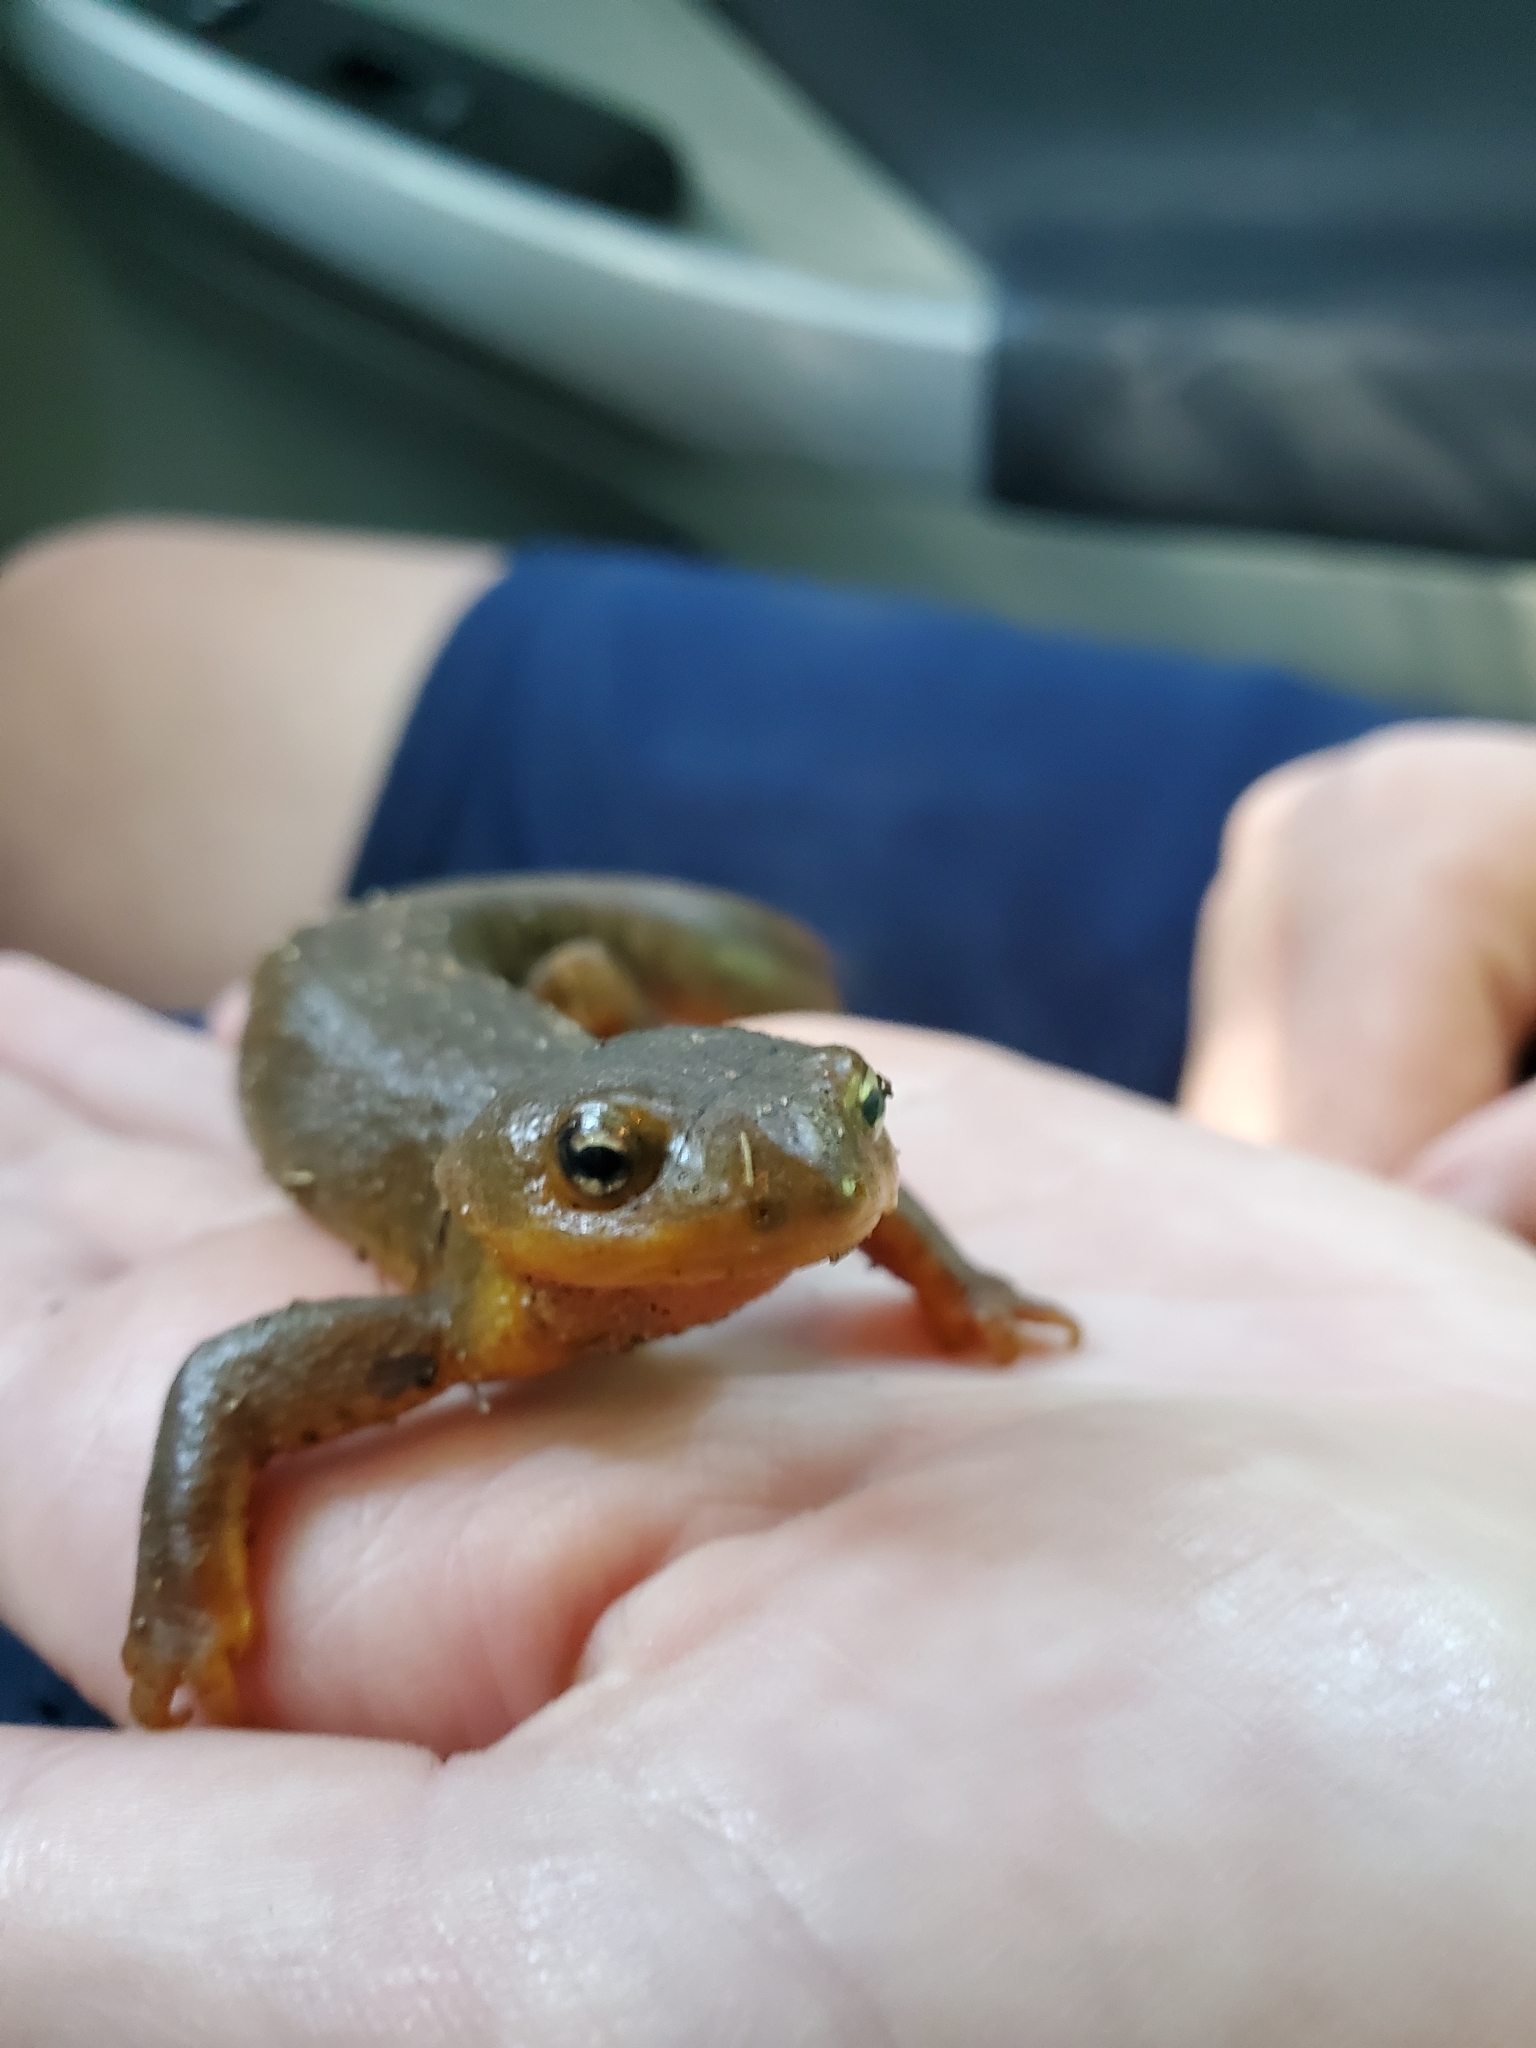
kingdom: Animalia
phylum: Chordata
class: Amphibia
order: Caudata
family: Salamandridae
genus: Taricha
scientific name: Taricha granulosa
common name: Roughskin newt
